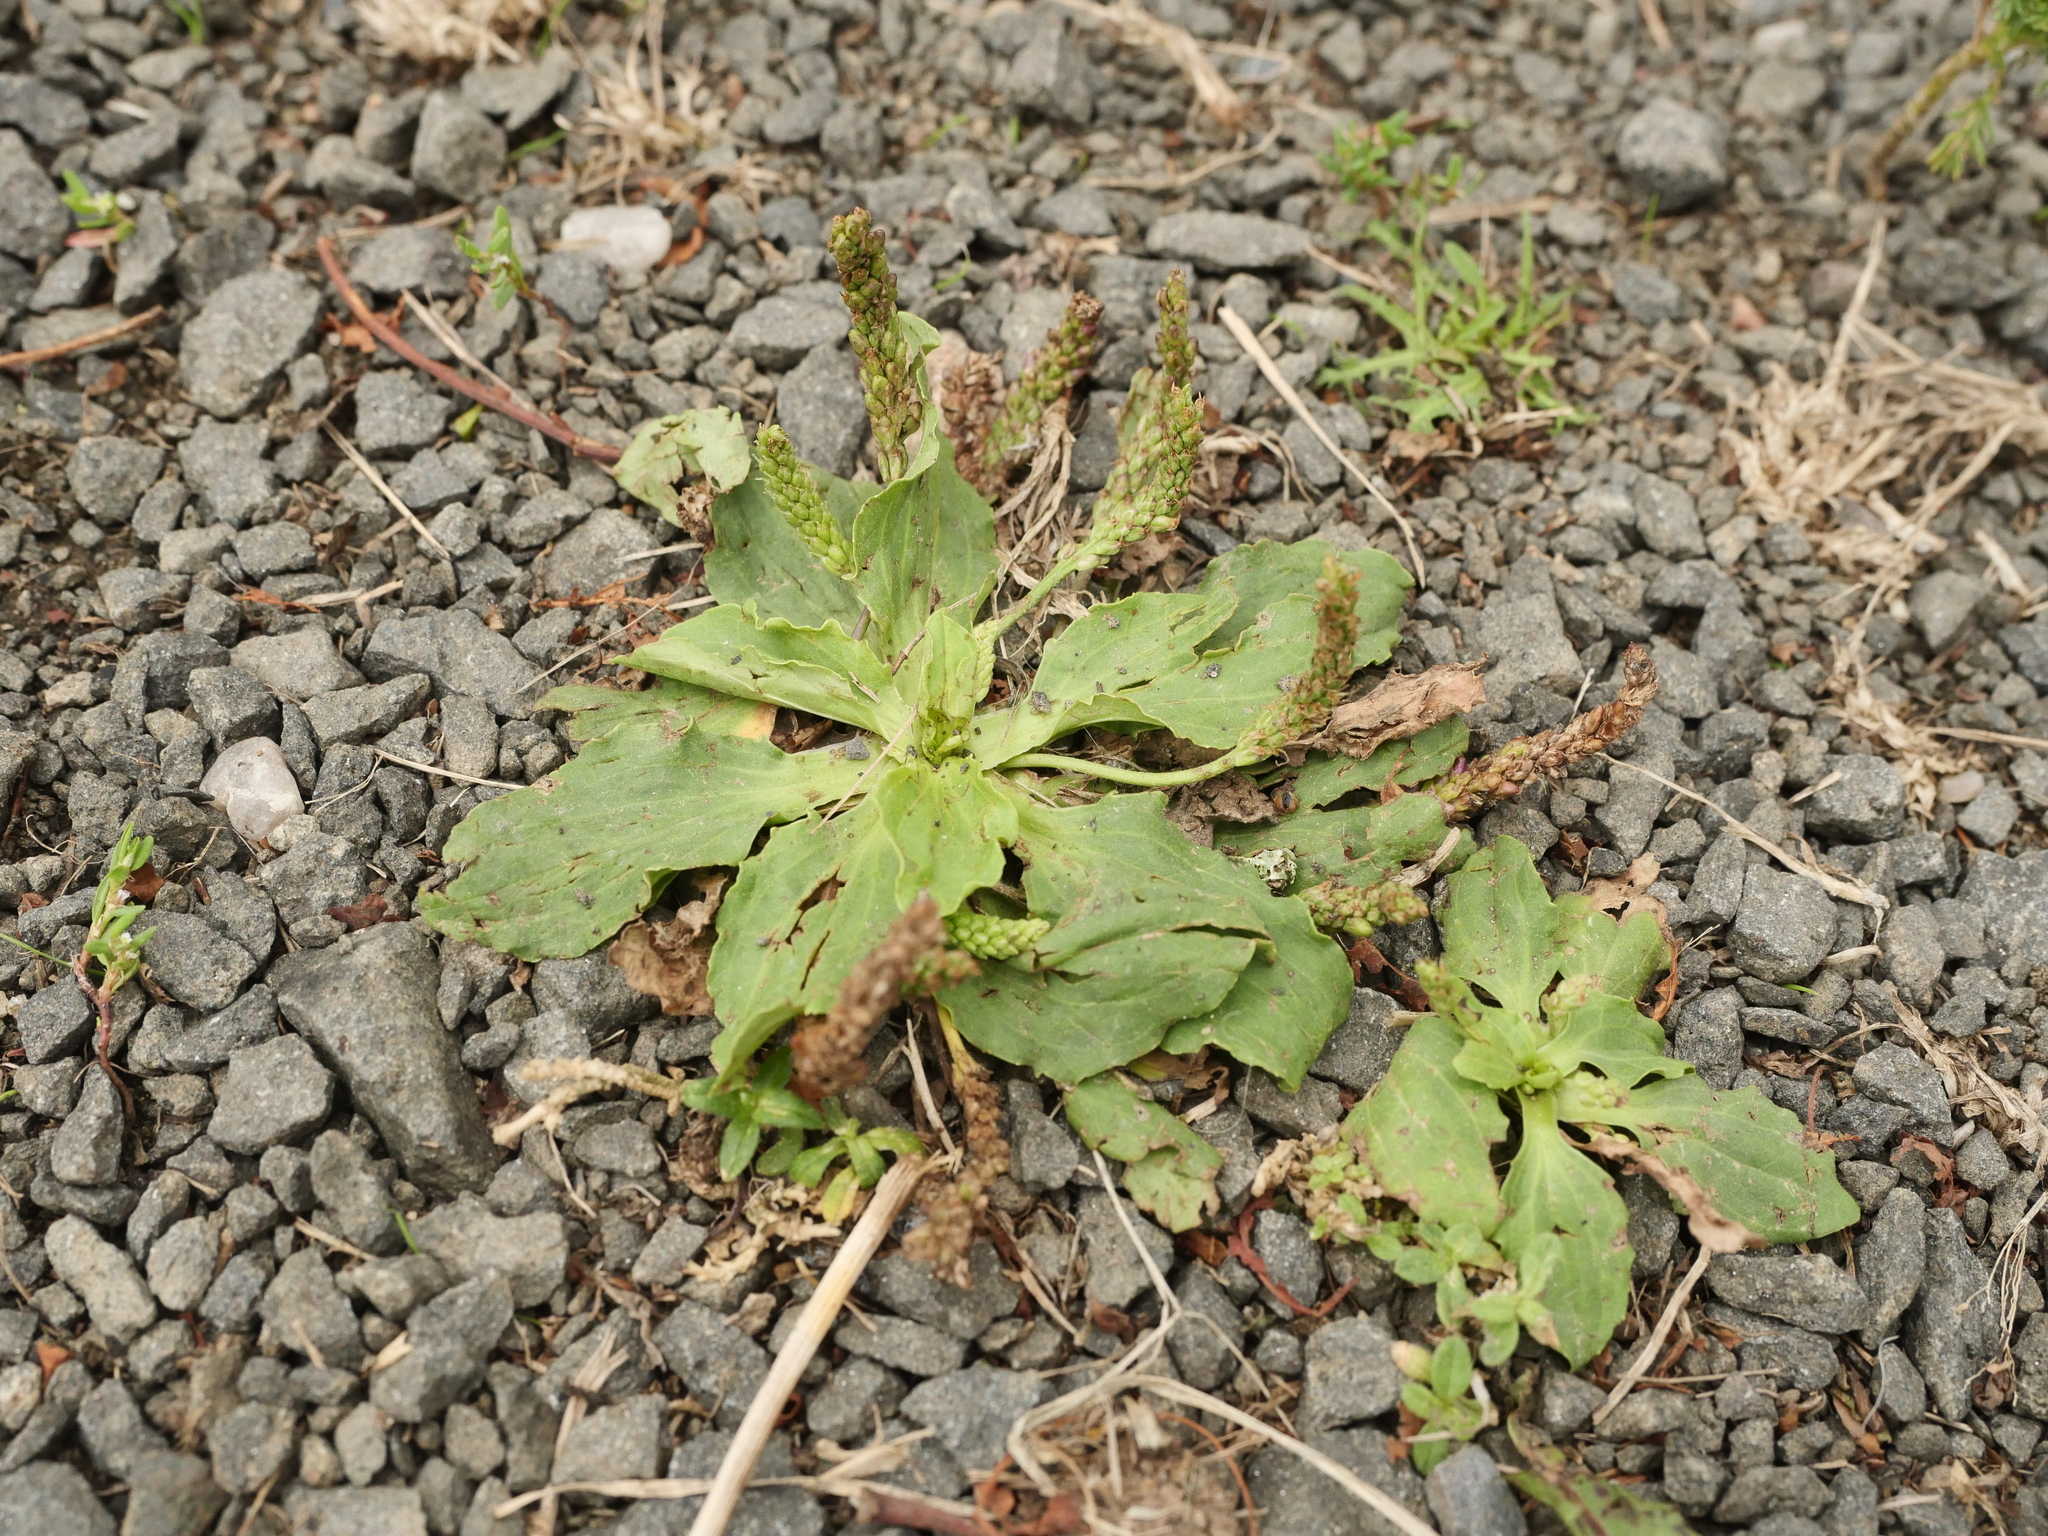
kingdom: Plantae
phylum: Tracheophyta
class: Magnoliopsida
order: Lamiales
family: Plantaginaceae
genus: Plantago
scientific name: Plantago major
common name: Common plantain
